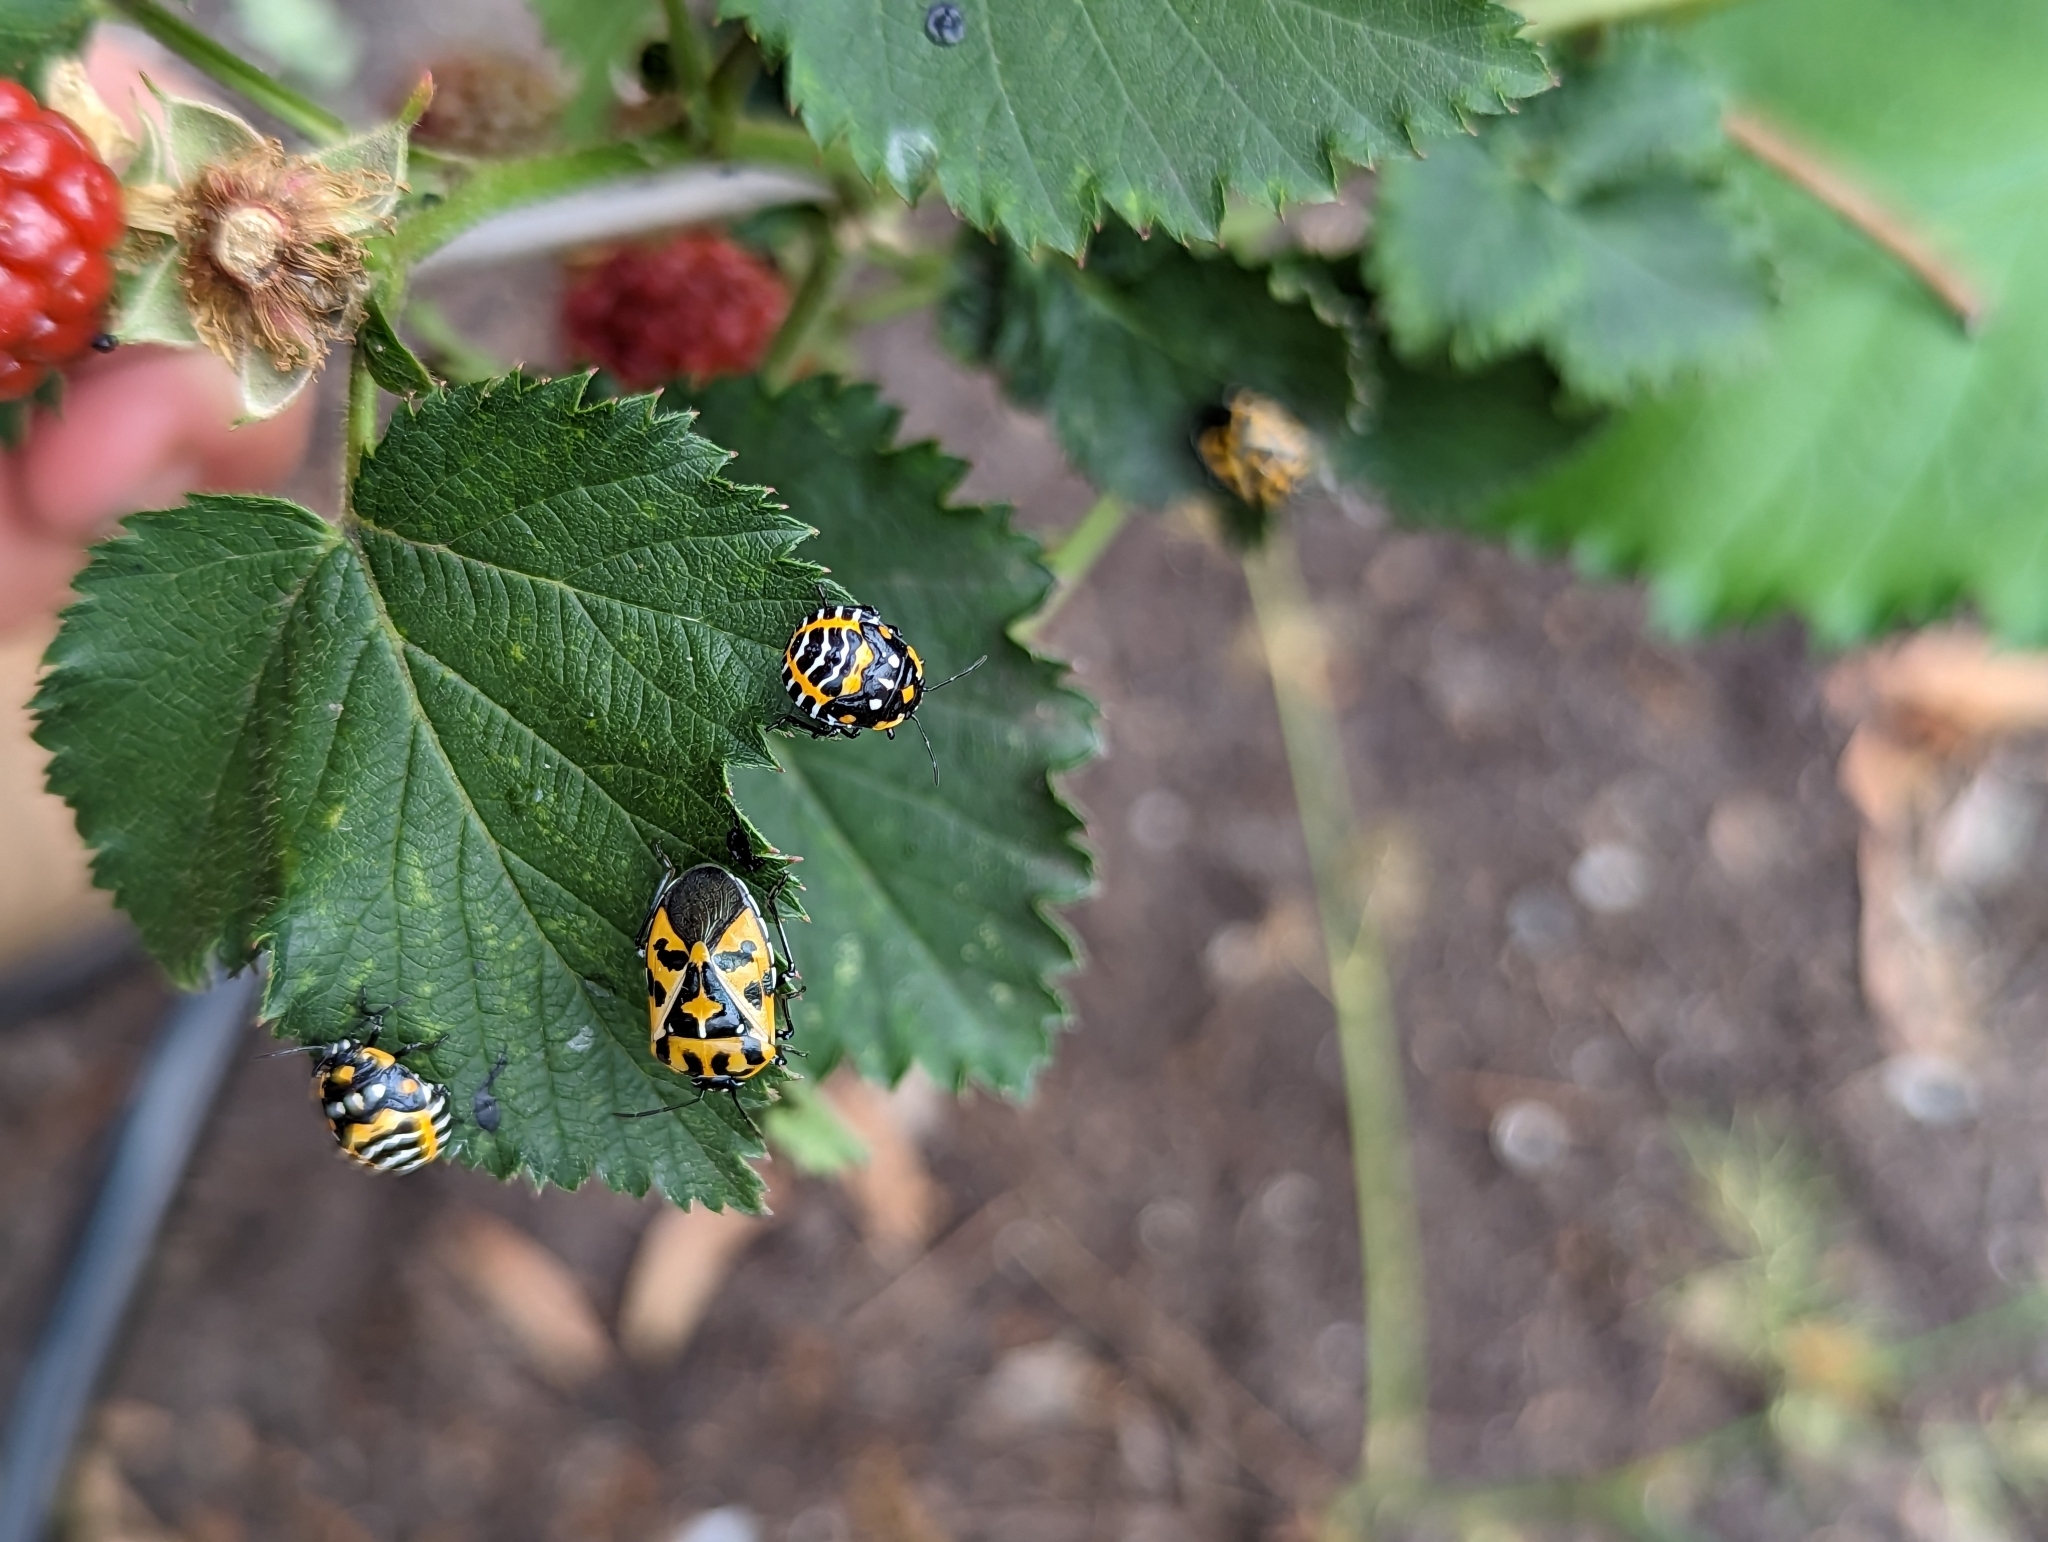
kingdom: Animalia
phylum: Arthropoda
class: Insecta
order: Hemiptera
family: Pentatomidae
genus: Murgantia
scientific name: Murgantia histrionica
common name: Harlequin bug
